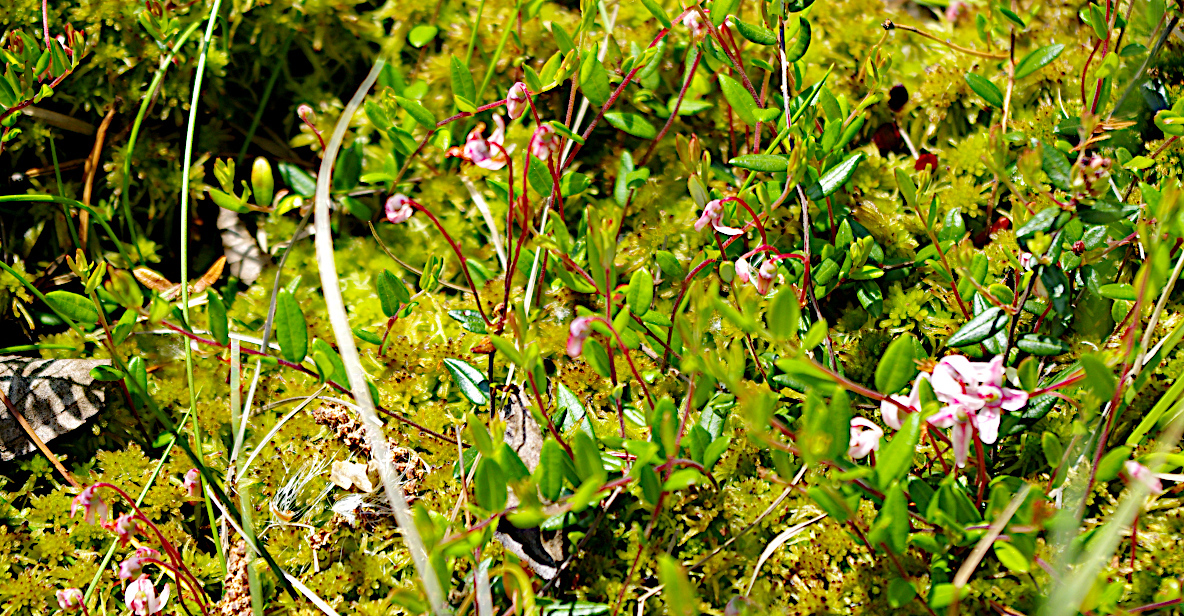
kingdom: Plantae
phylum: Tracheophyta
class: Magnoliopsida
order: Ericales
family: Ericaceae
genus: Vaccinium
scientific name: Vaccinium oxycoccos
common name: Cranberry
